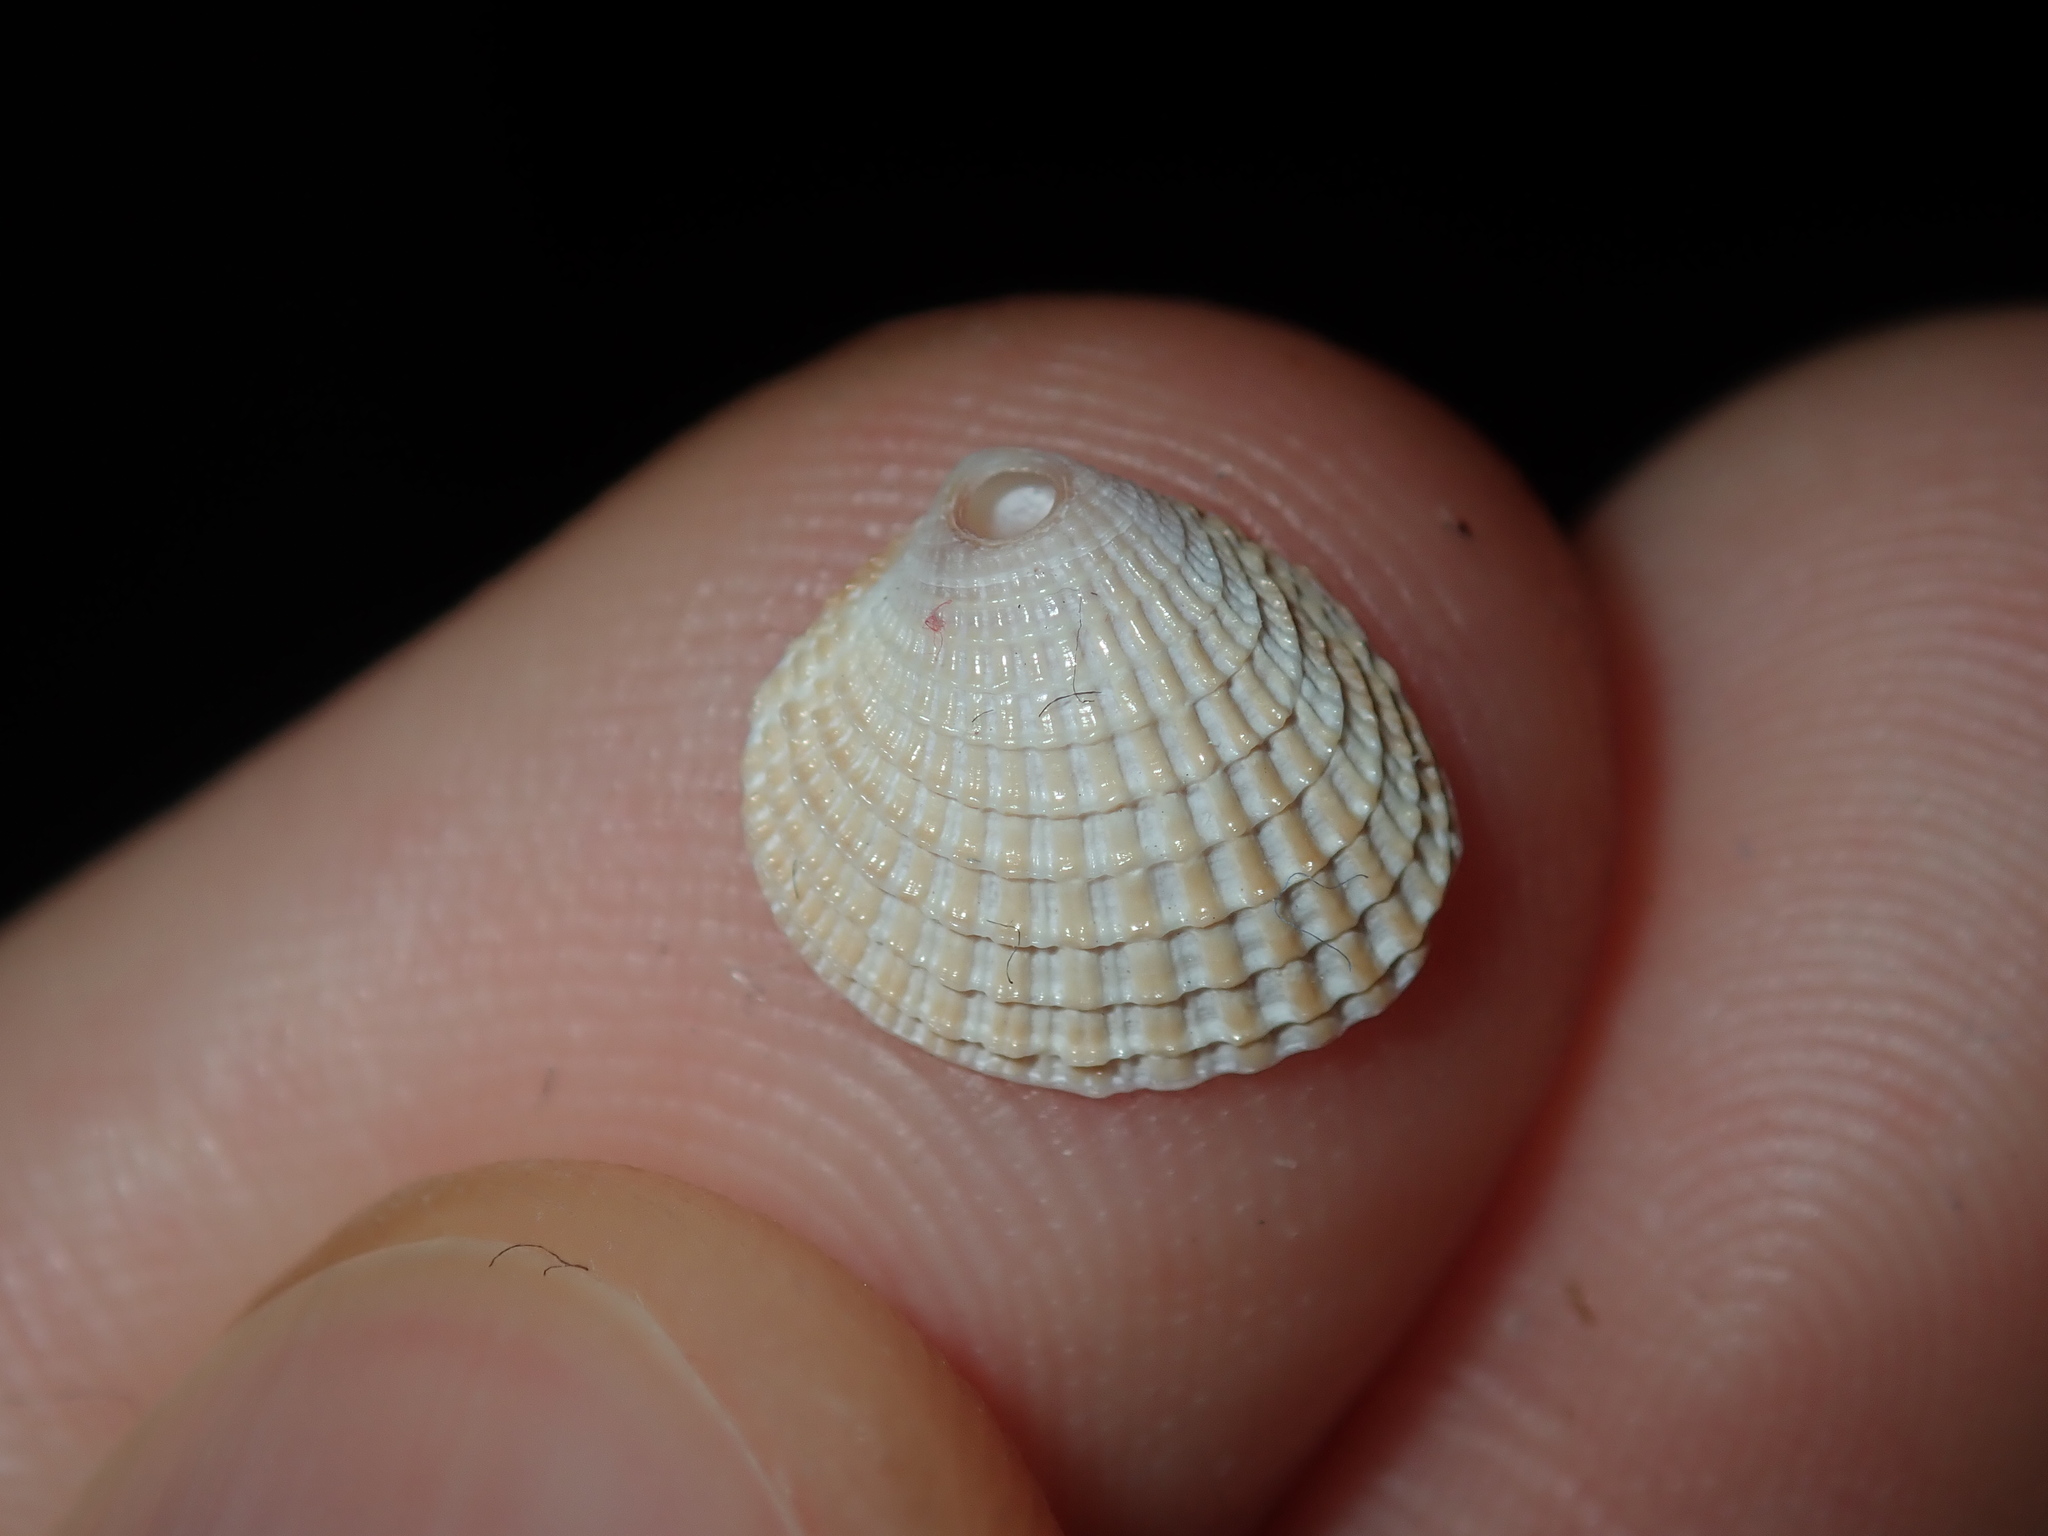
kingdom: Animalia
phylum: Mollusca
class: Bivalvia
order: Venerida
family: Veneridae
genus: Timoclea
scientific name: Timoclea scabra
